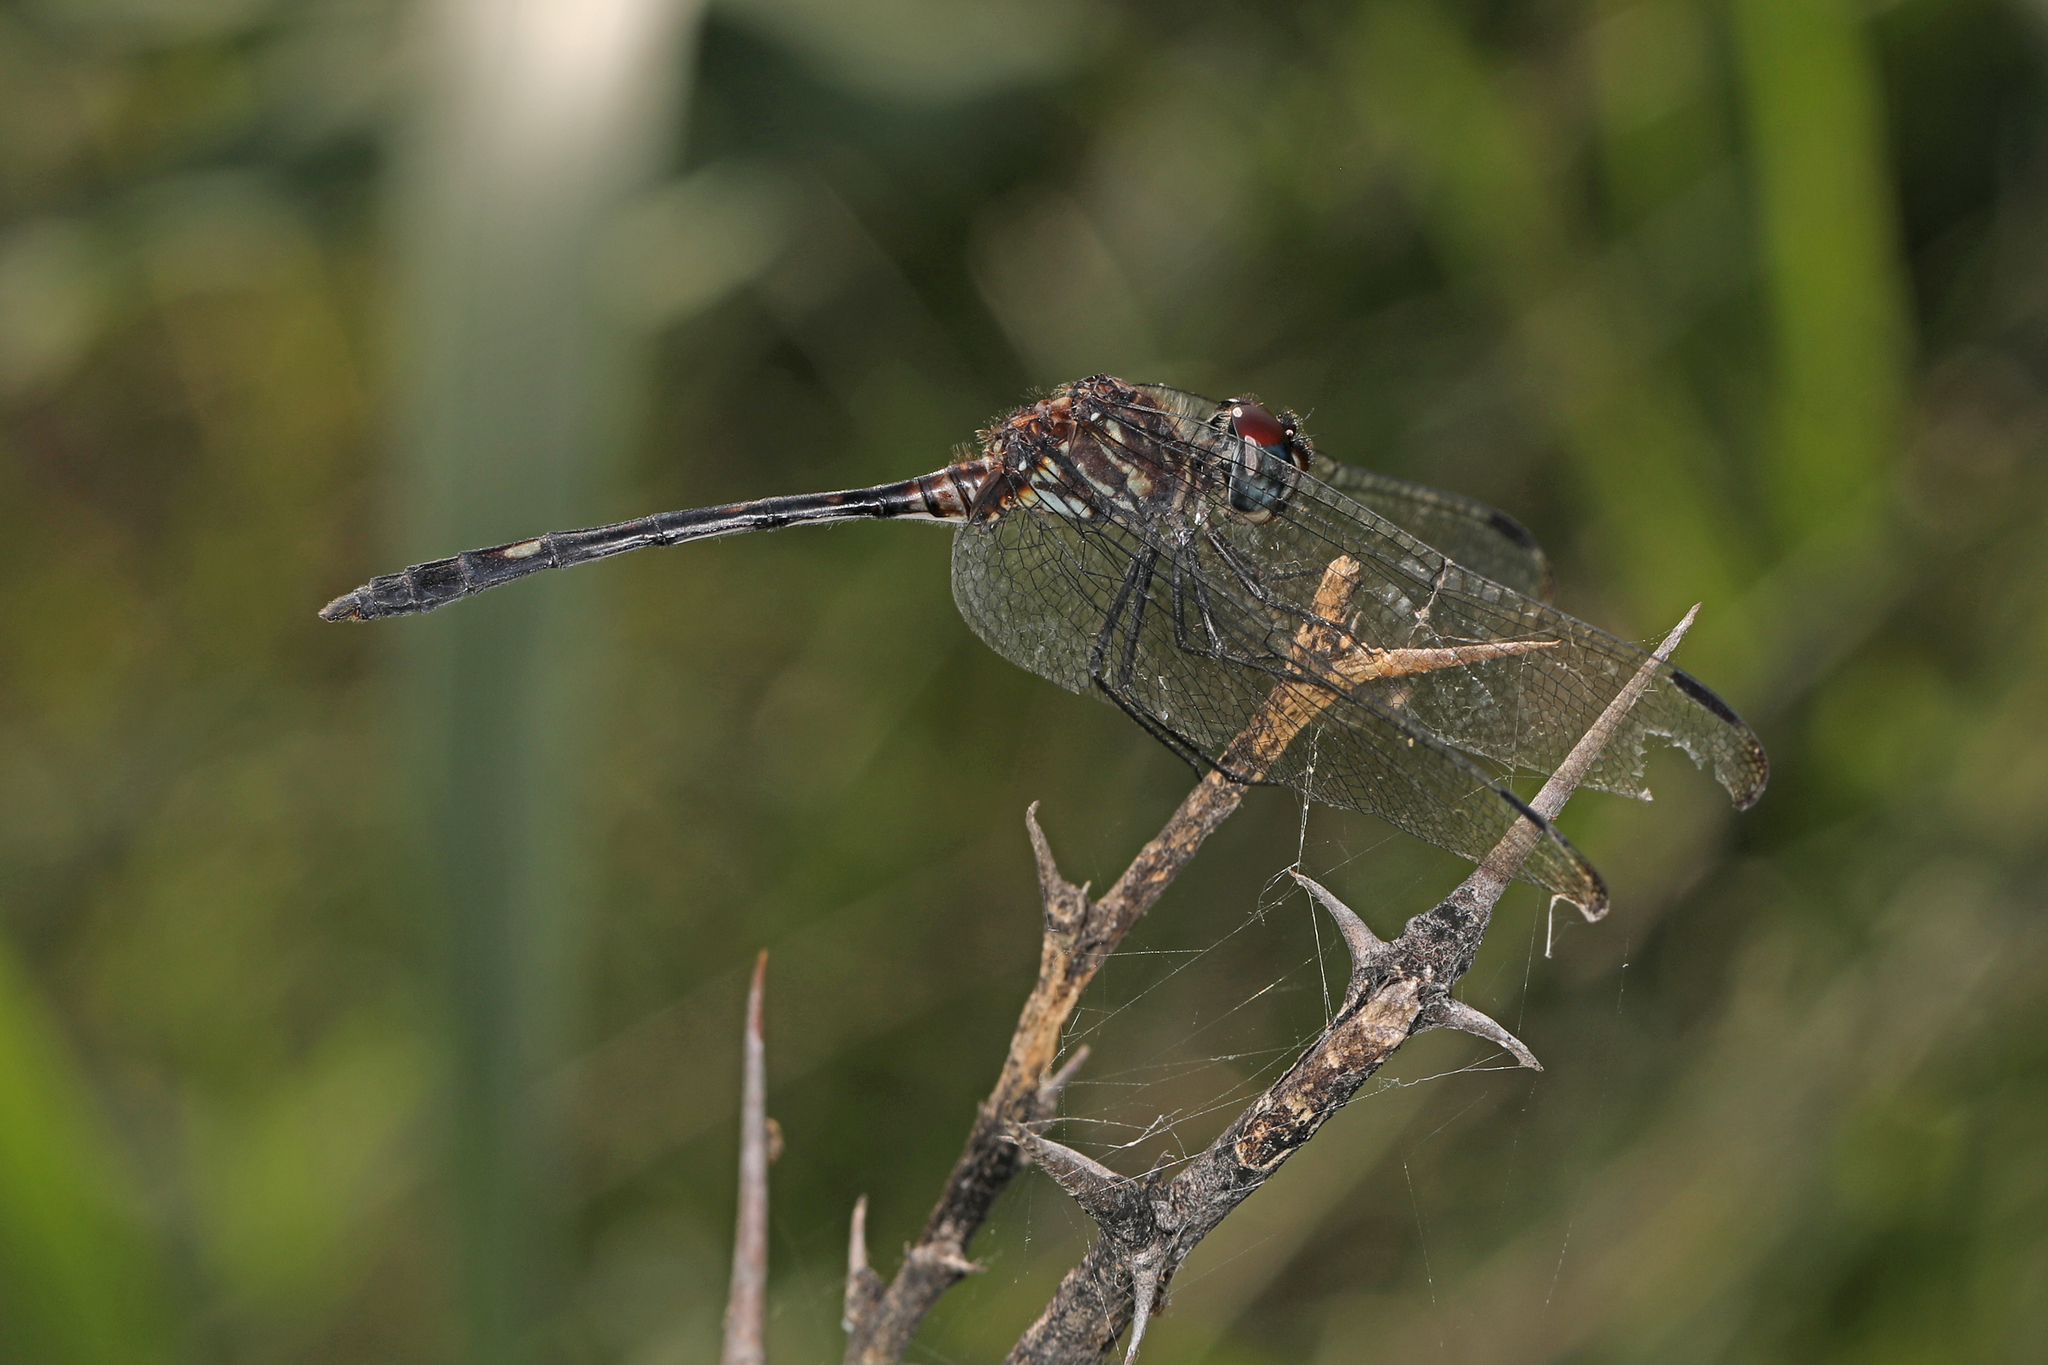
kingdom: Animalia
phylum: Arthropoda
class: Insecta
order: Odonata
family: Libellulidae
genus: Dythemis
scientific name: Dythemis velox
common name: Swift setwing
